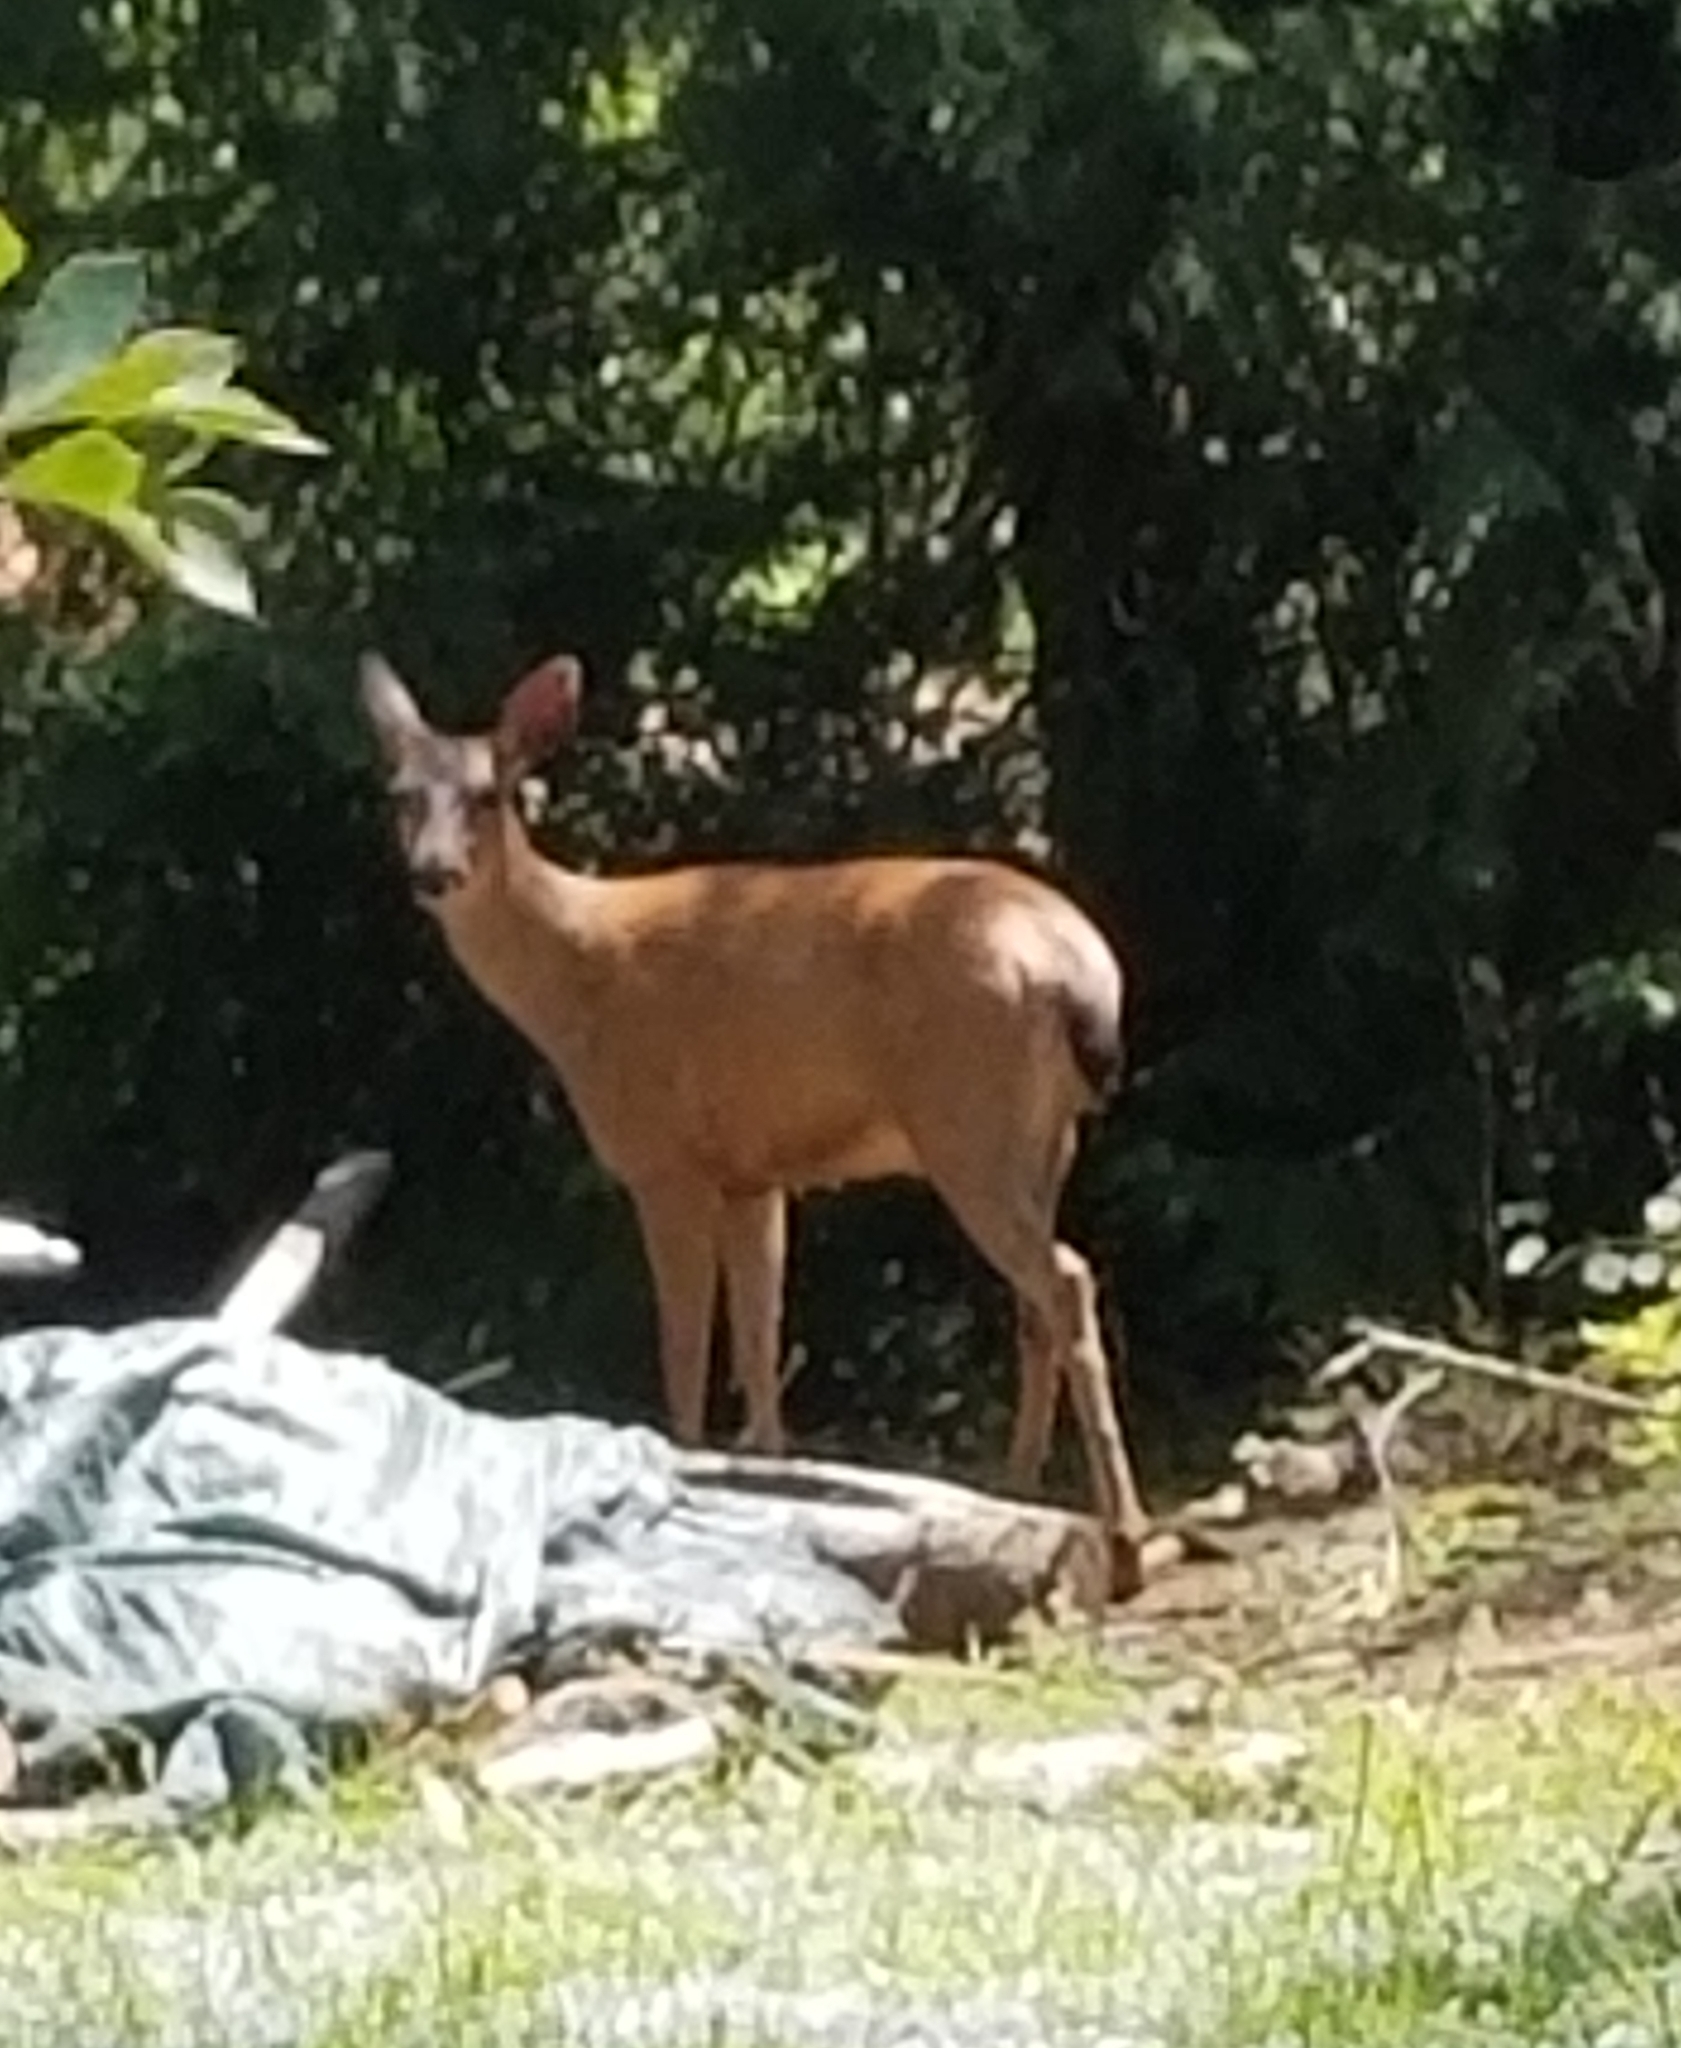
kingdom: Animalia
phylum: Chordata
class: Mammalia
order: Artiodactyla
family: Cervidae
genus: Odocoileus
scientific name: Odocoileus hemionus
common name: Mule deer
